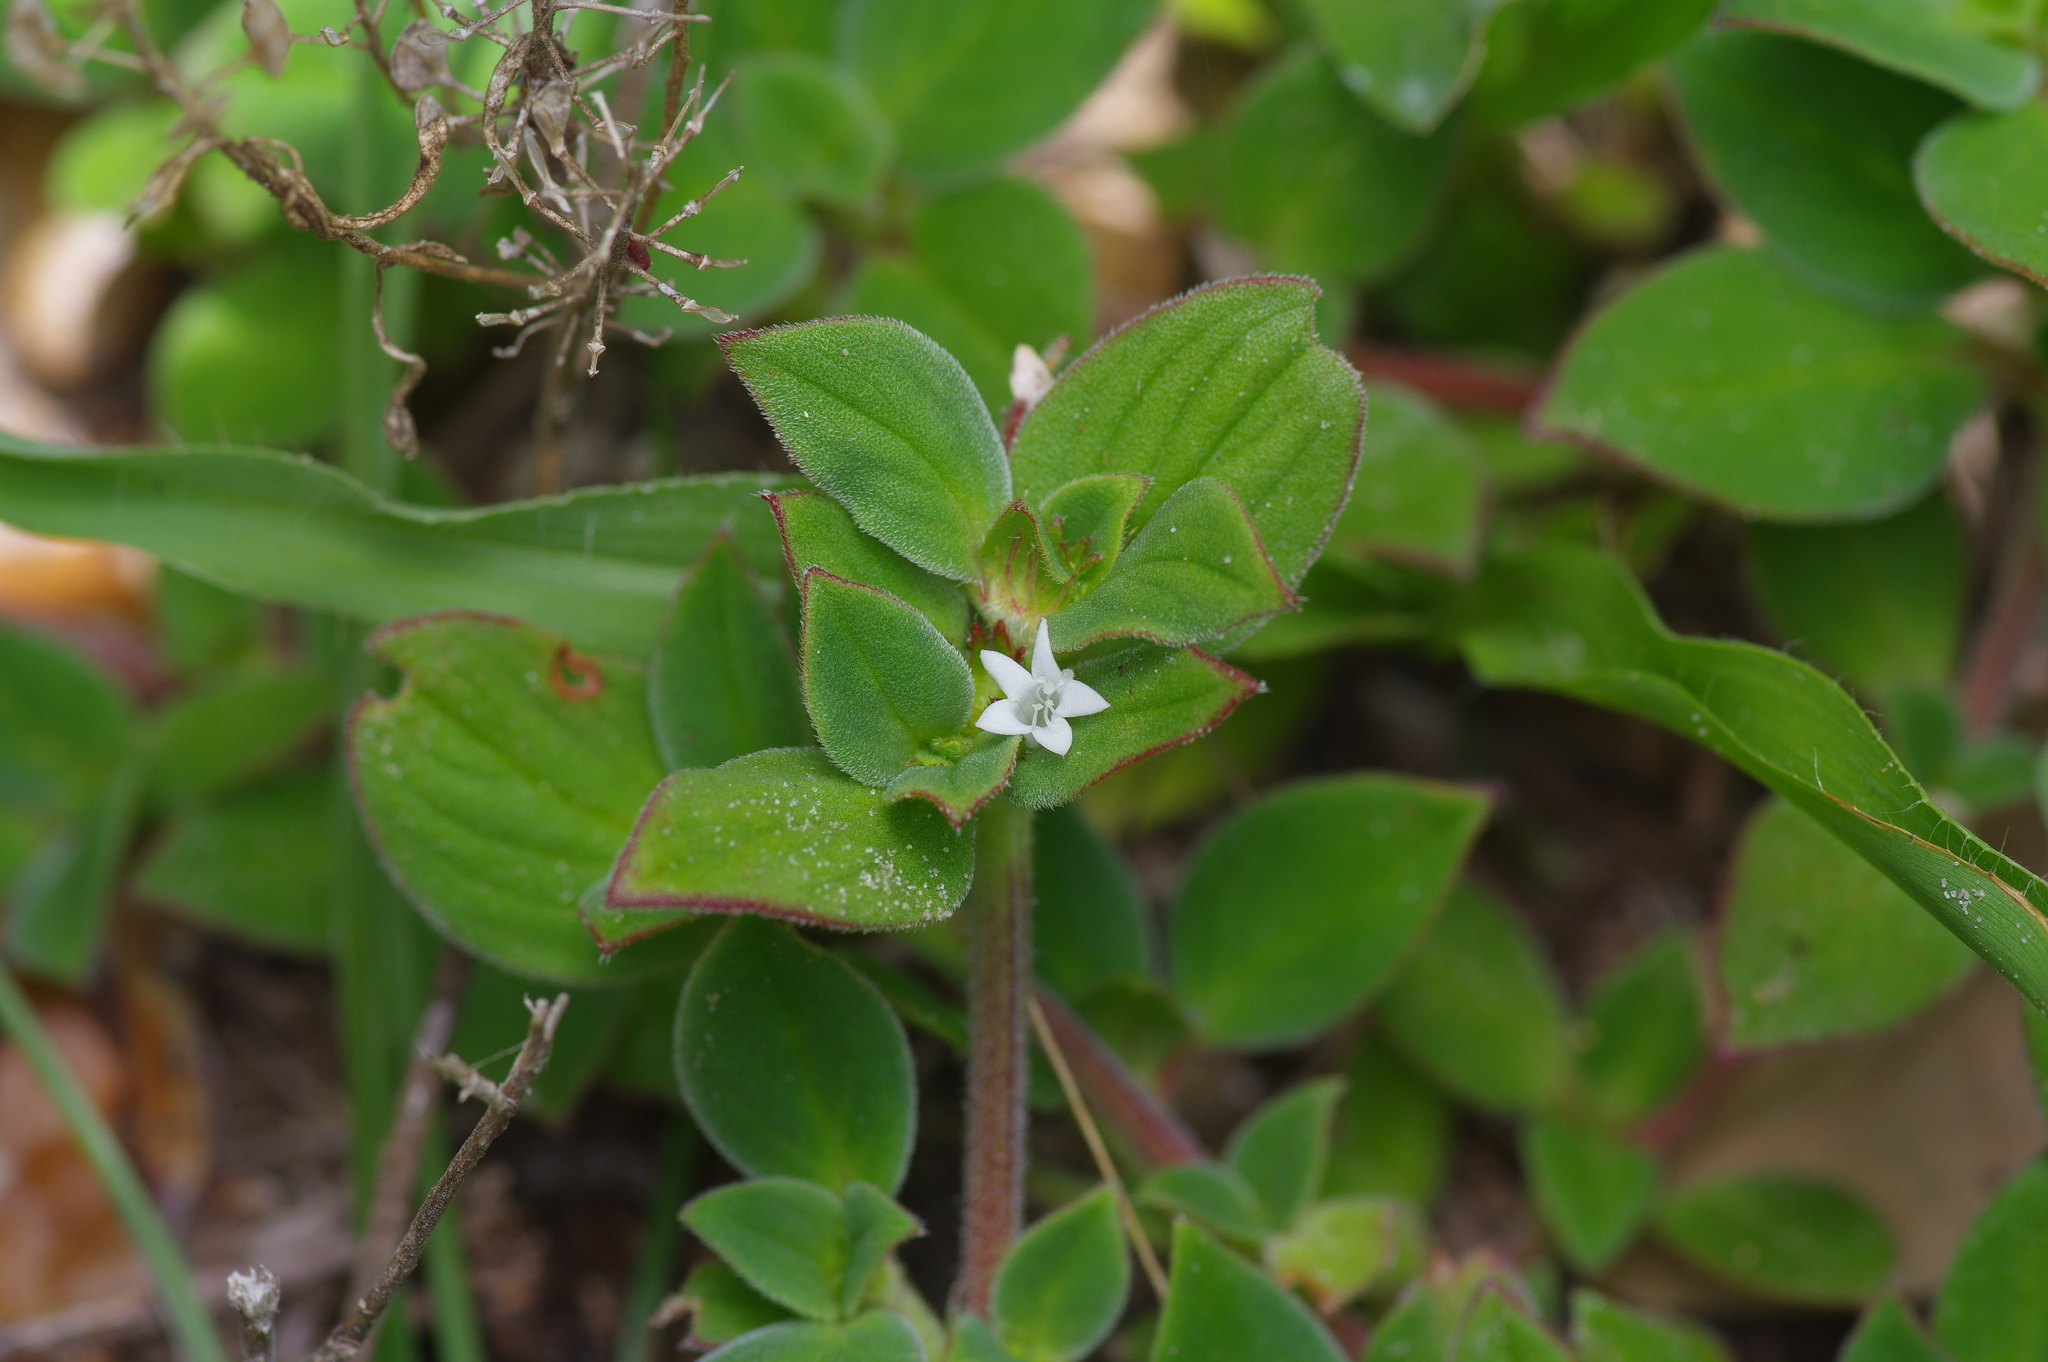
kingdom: Plantae
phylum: Tracheophyta
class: Magnoliopsida
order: Gentianales
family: Rubiaceae
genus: Richardia
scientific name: Richardia brasiliensis
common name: Tropical mexican clover
